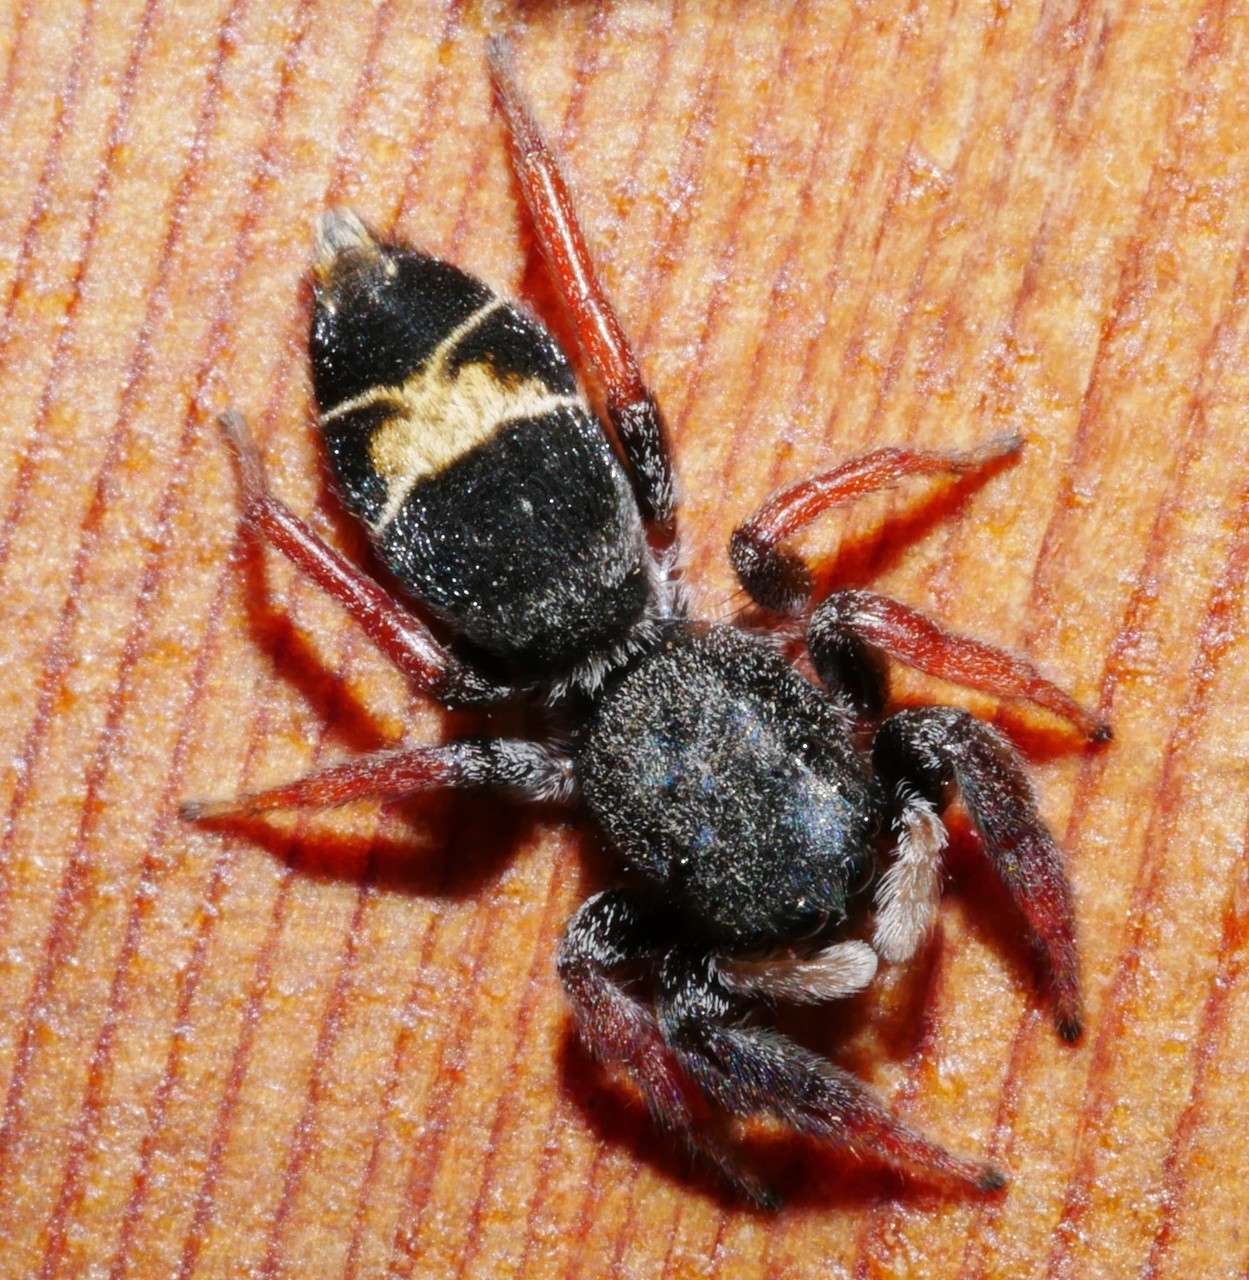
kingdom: Animalia
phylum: Arthropoda
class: Arachnida
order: Araneae
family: Salticidae
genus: Apricia
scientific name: Apricia jovialis
